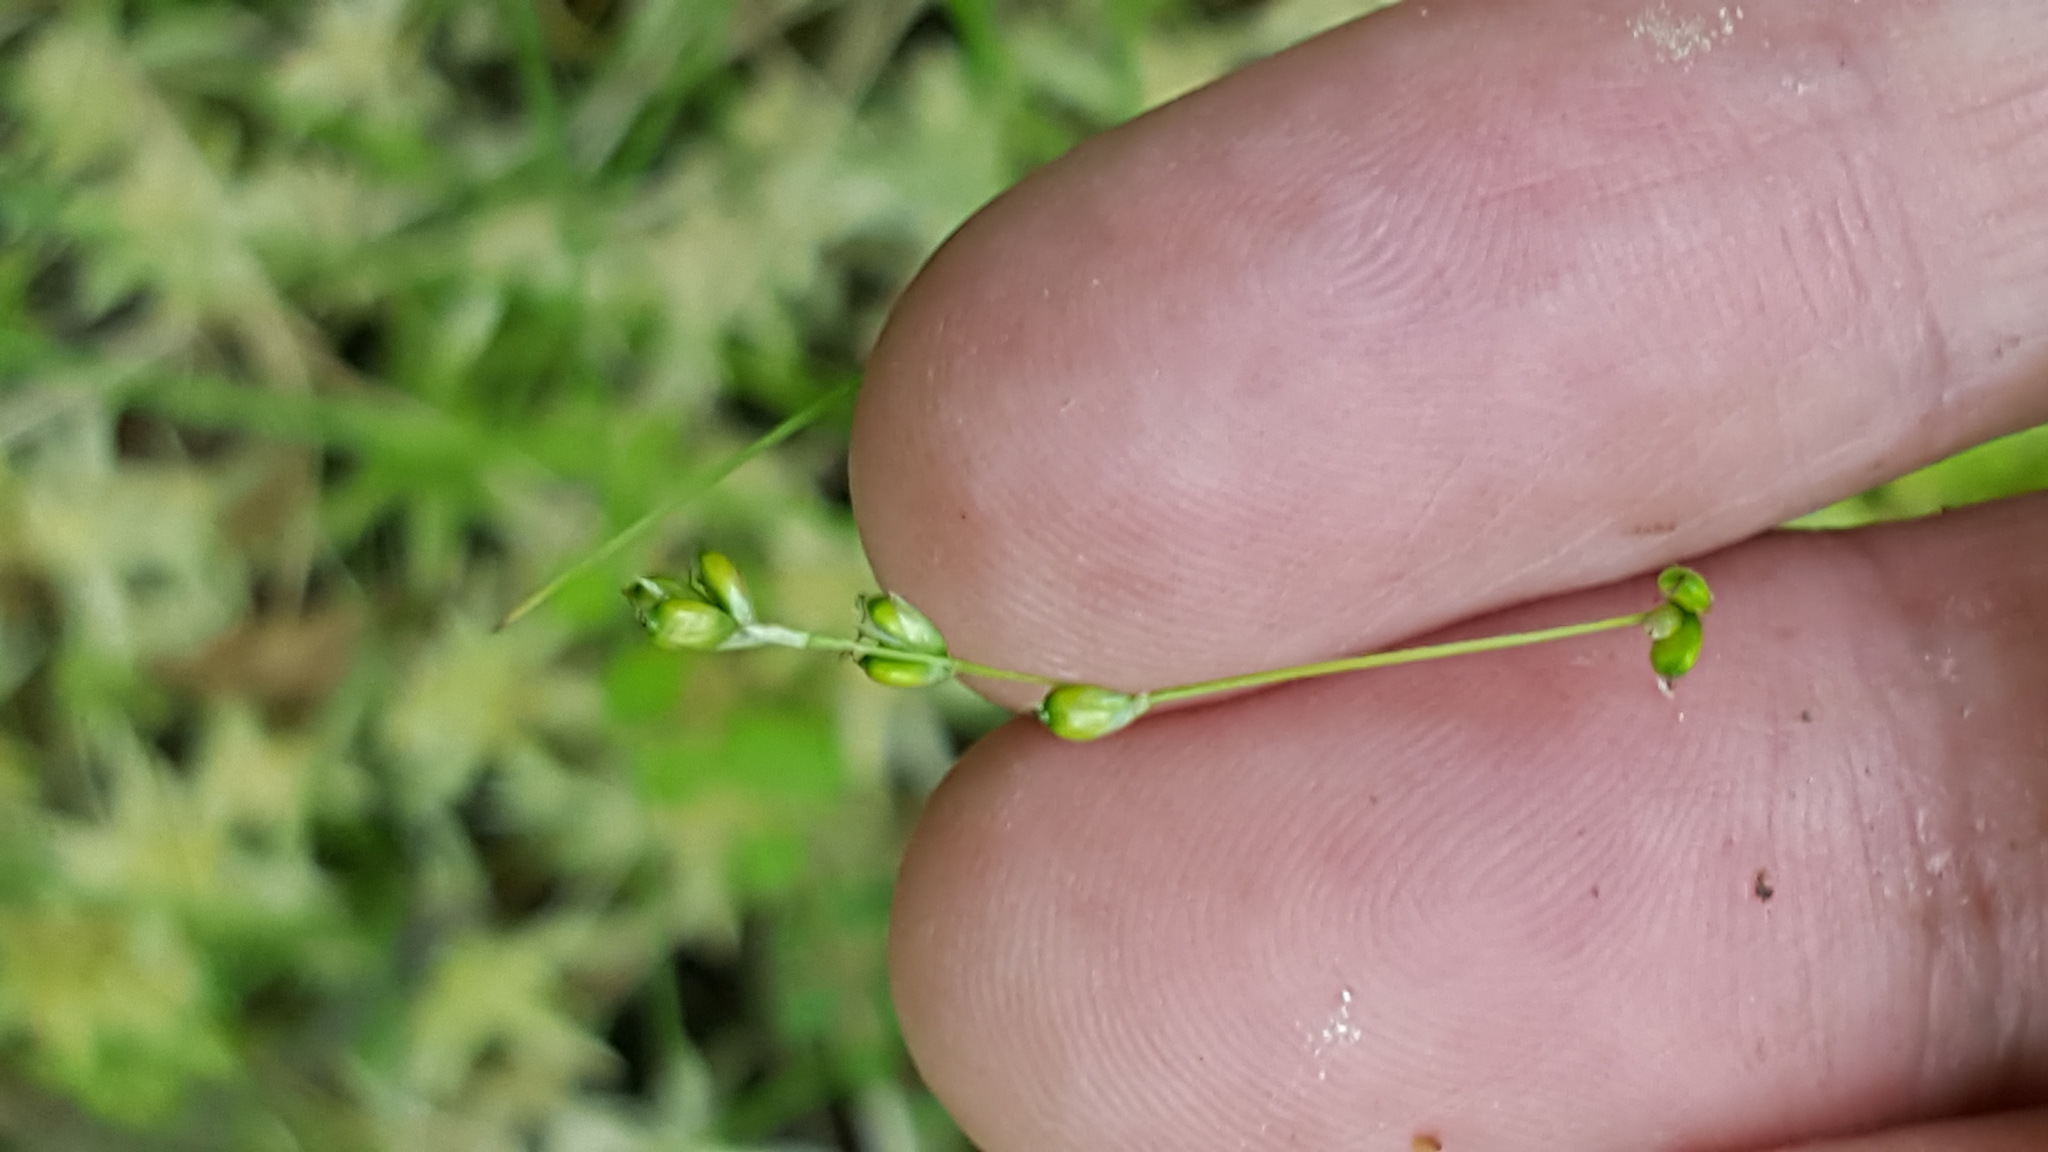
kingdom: Plantae
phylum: Tracheophyta
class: Liliopsida
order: Poales
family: Cyperaceae
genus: Carex
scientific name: Carex disperma
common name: Short-leaved sedge
